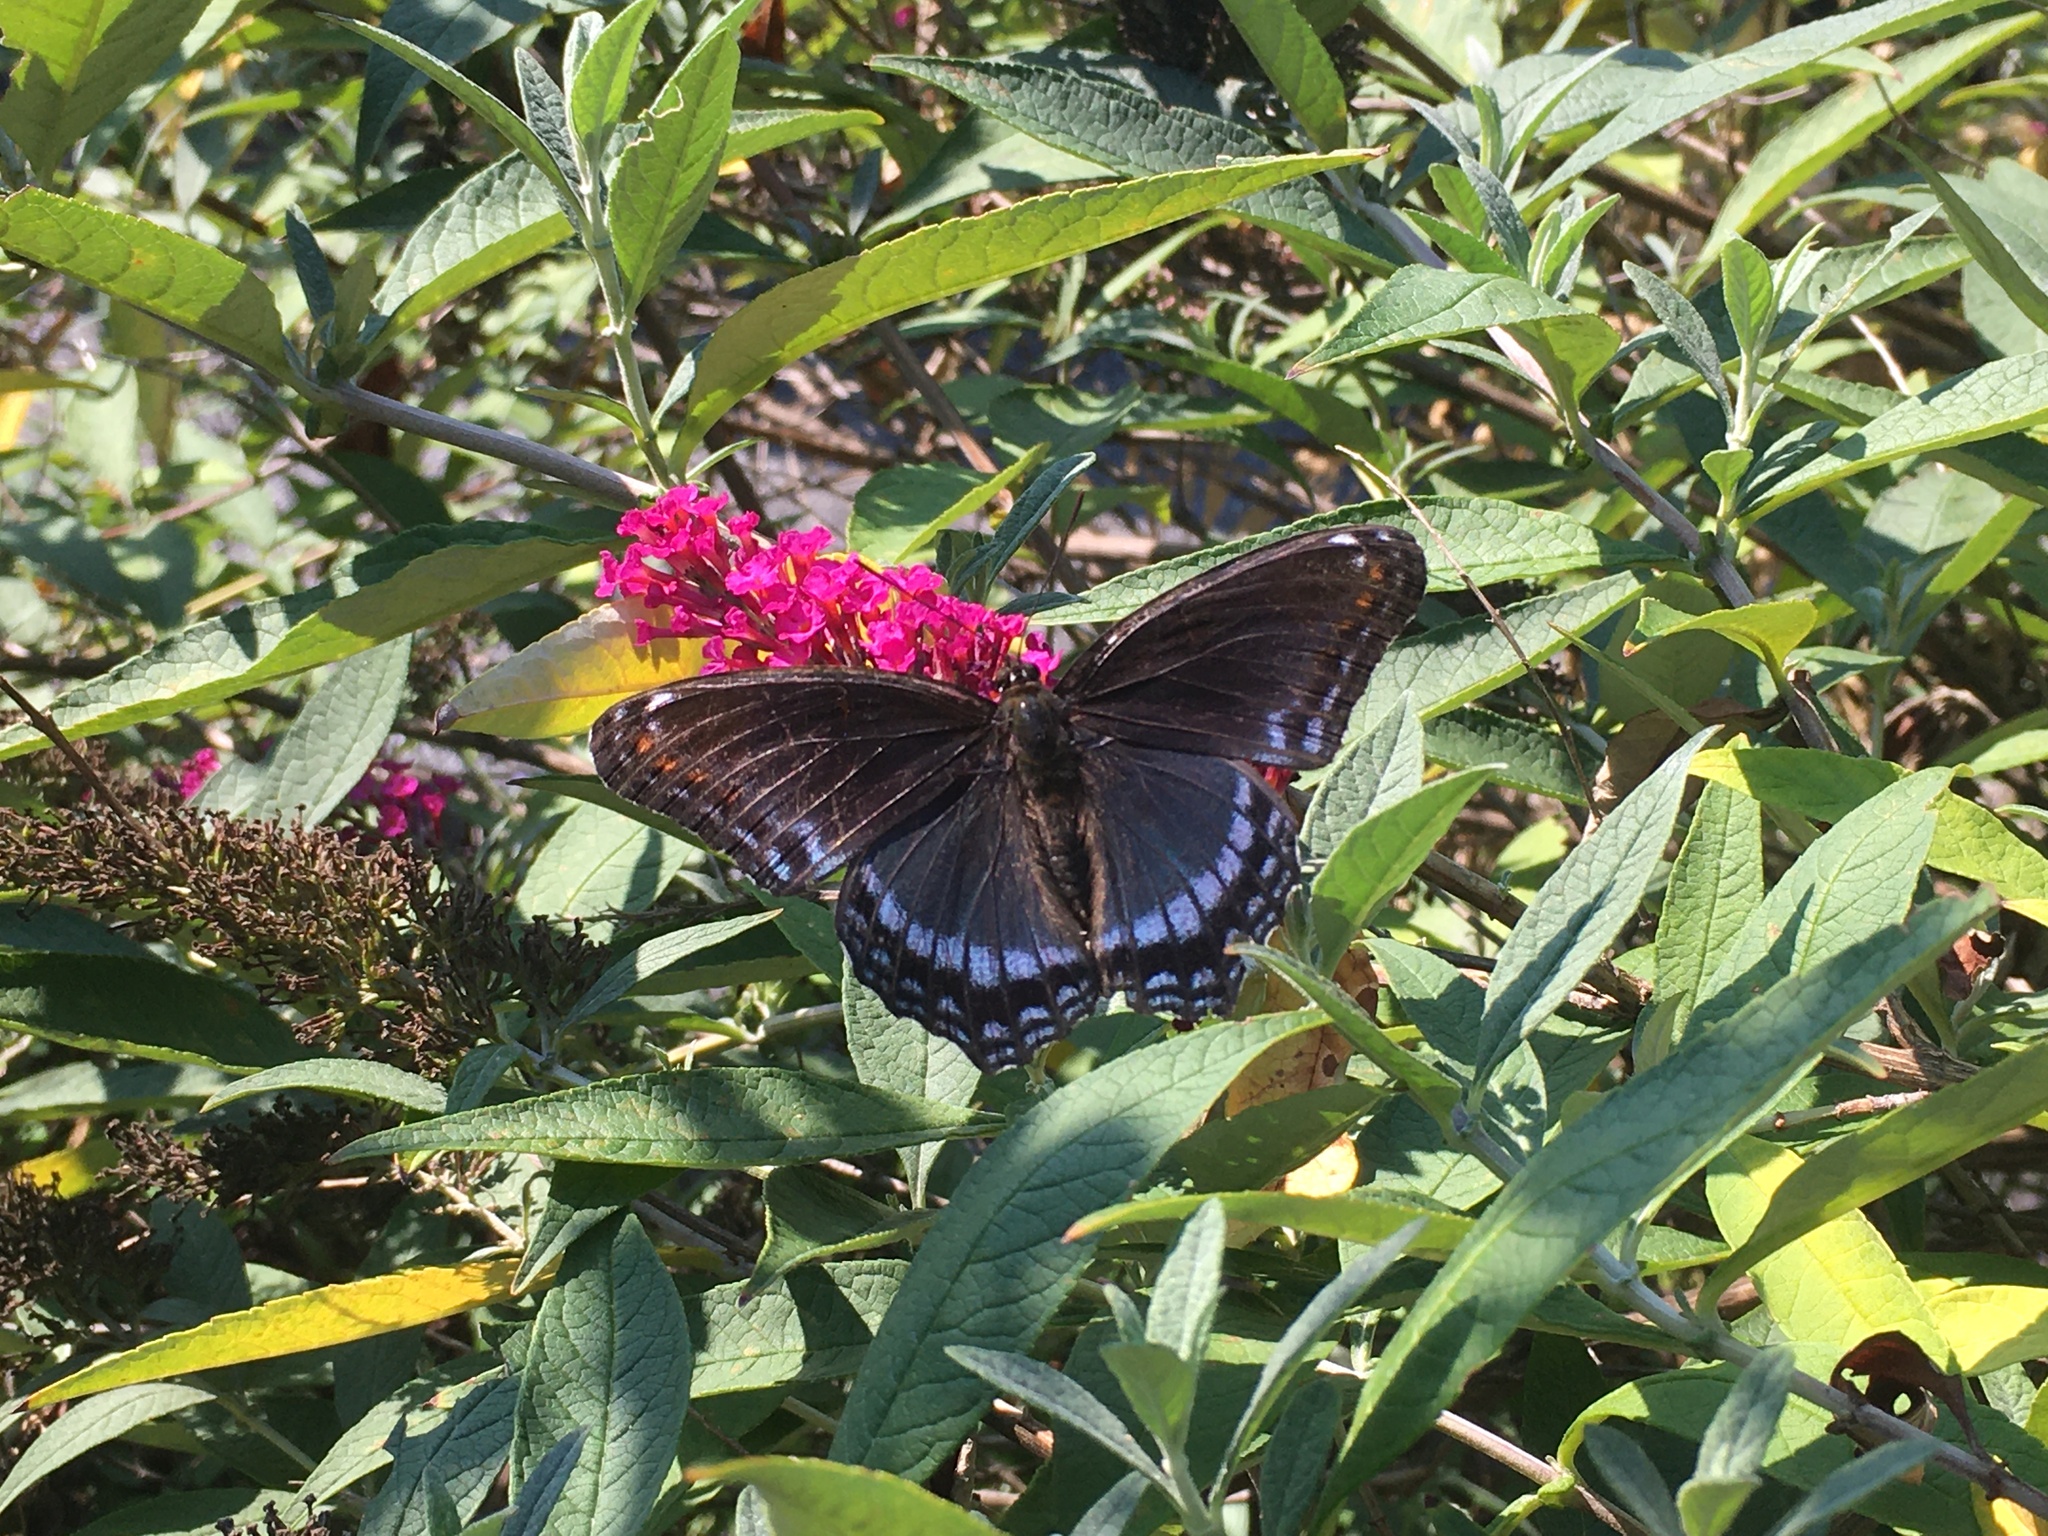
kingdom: Animalia
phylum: Arthropoda
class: Insecta
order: Lepidoptera
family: Nymphalidae
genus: Limenitis
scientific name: Limenitis arthemis
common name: Red-spotted admiral
